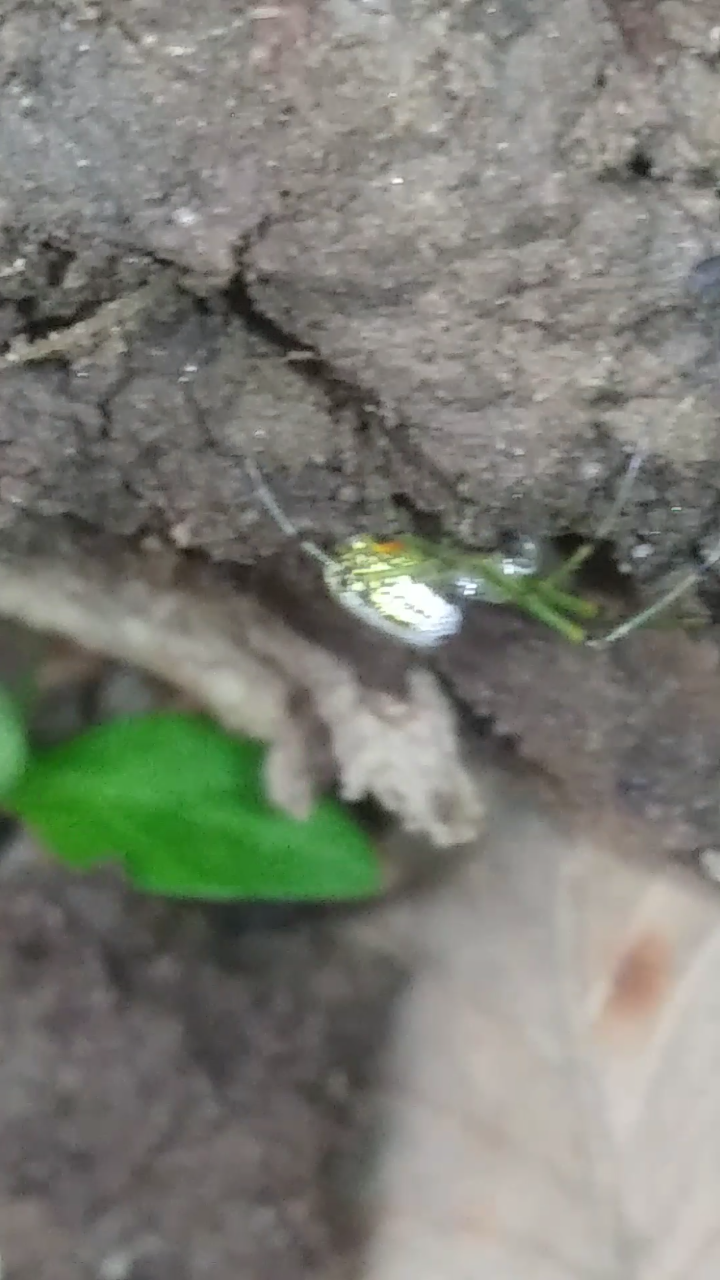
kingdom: Animalia
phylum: Arthropoda
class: Arachnida
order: Araneae
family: Tetragnathidae
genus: Leucauge
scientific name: Leucauge venusta
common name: Longjawed orb weavers
